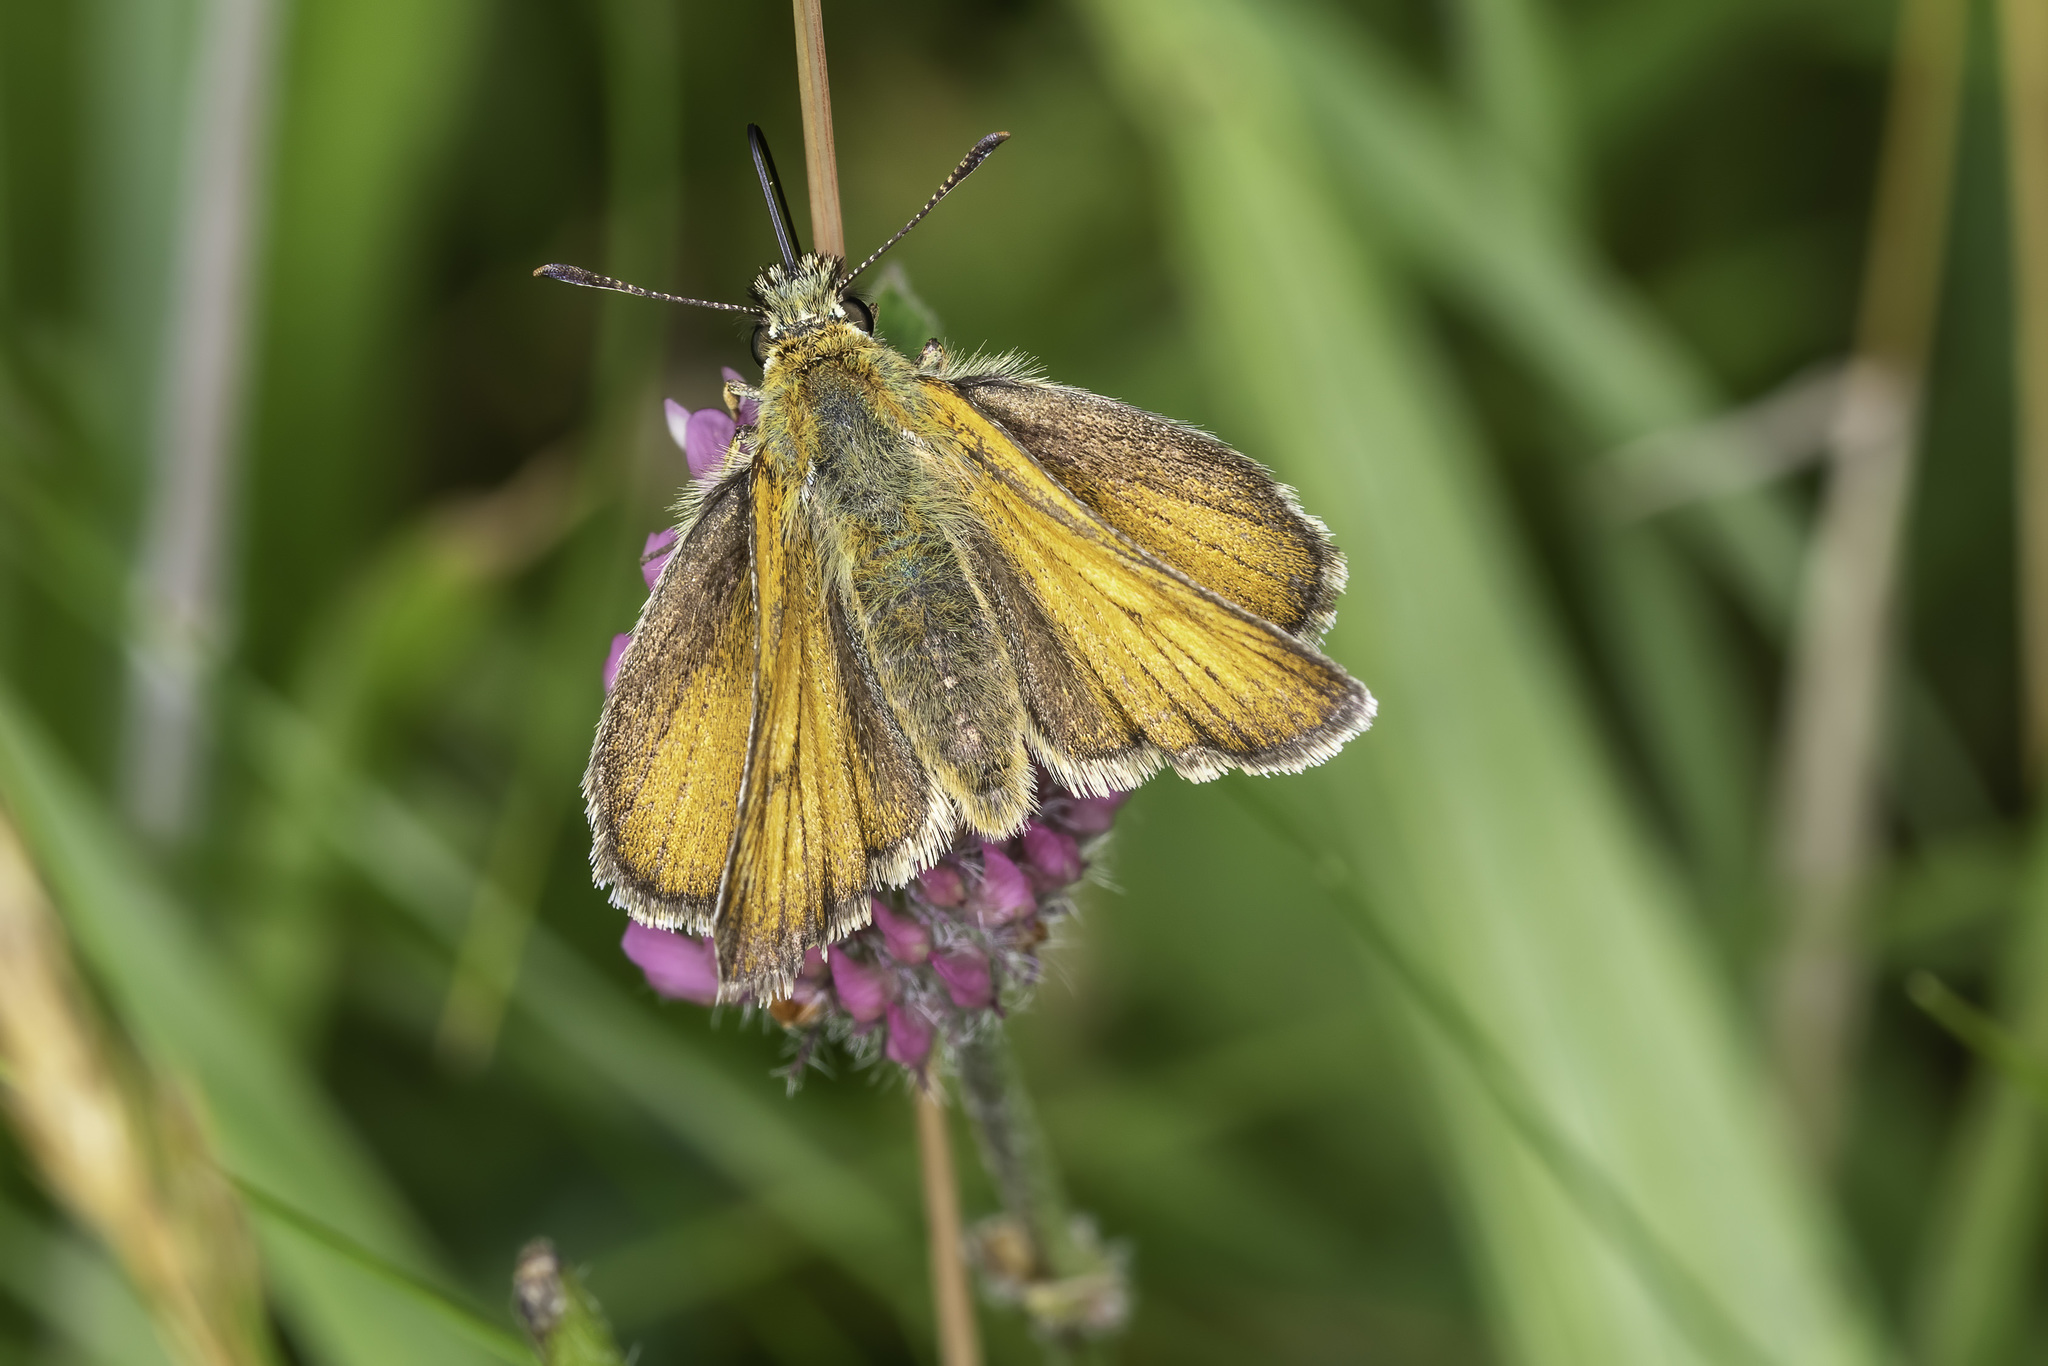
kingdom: Animalia
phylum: Arthropoda
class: Insecta
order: Lepidoptera
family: Hesperiidae
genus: Thymelicus
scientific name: Thymelicus sylvestris
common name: Small skipper
